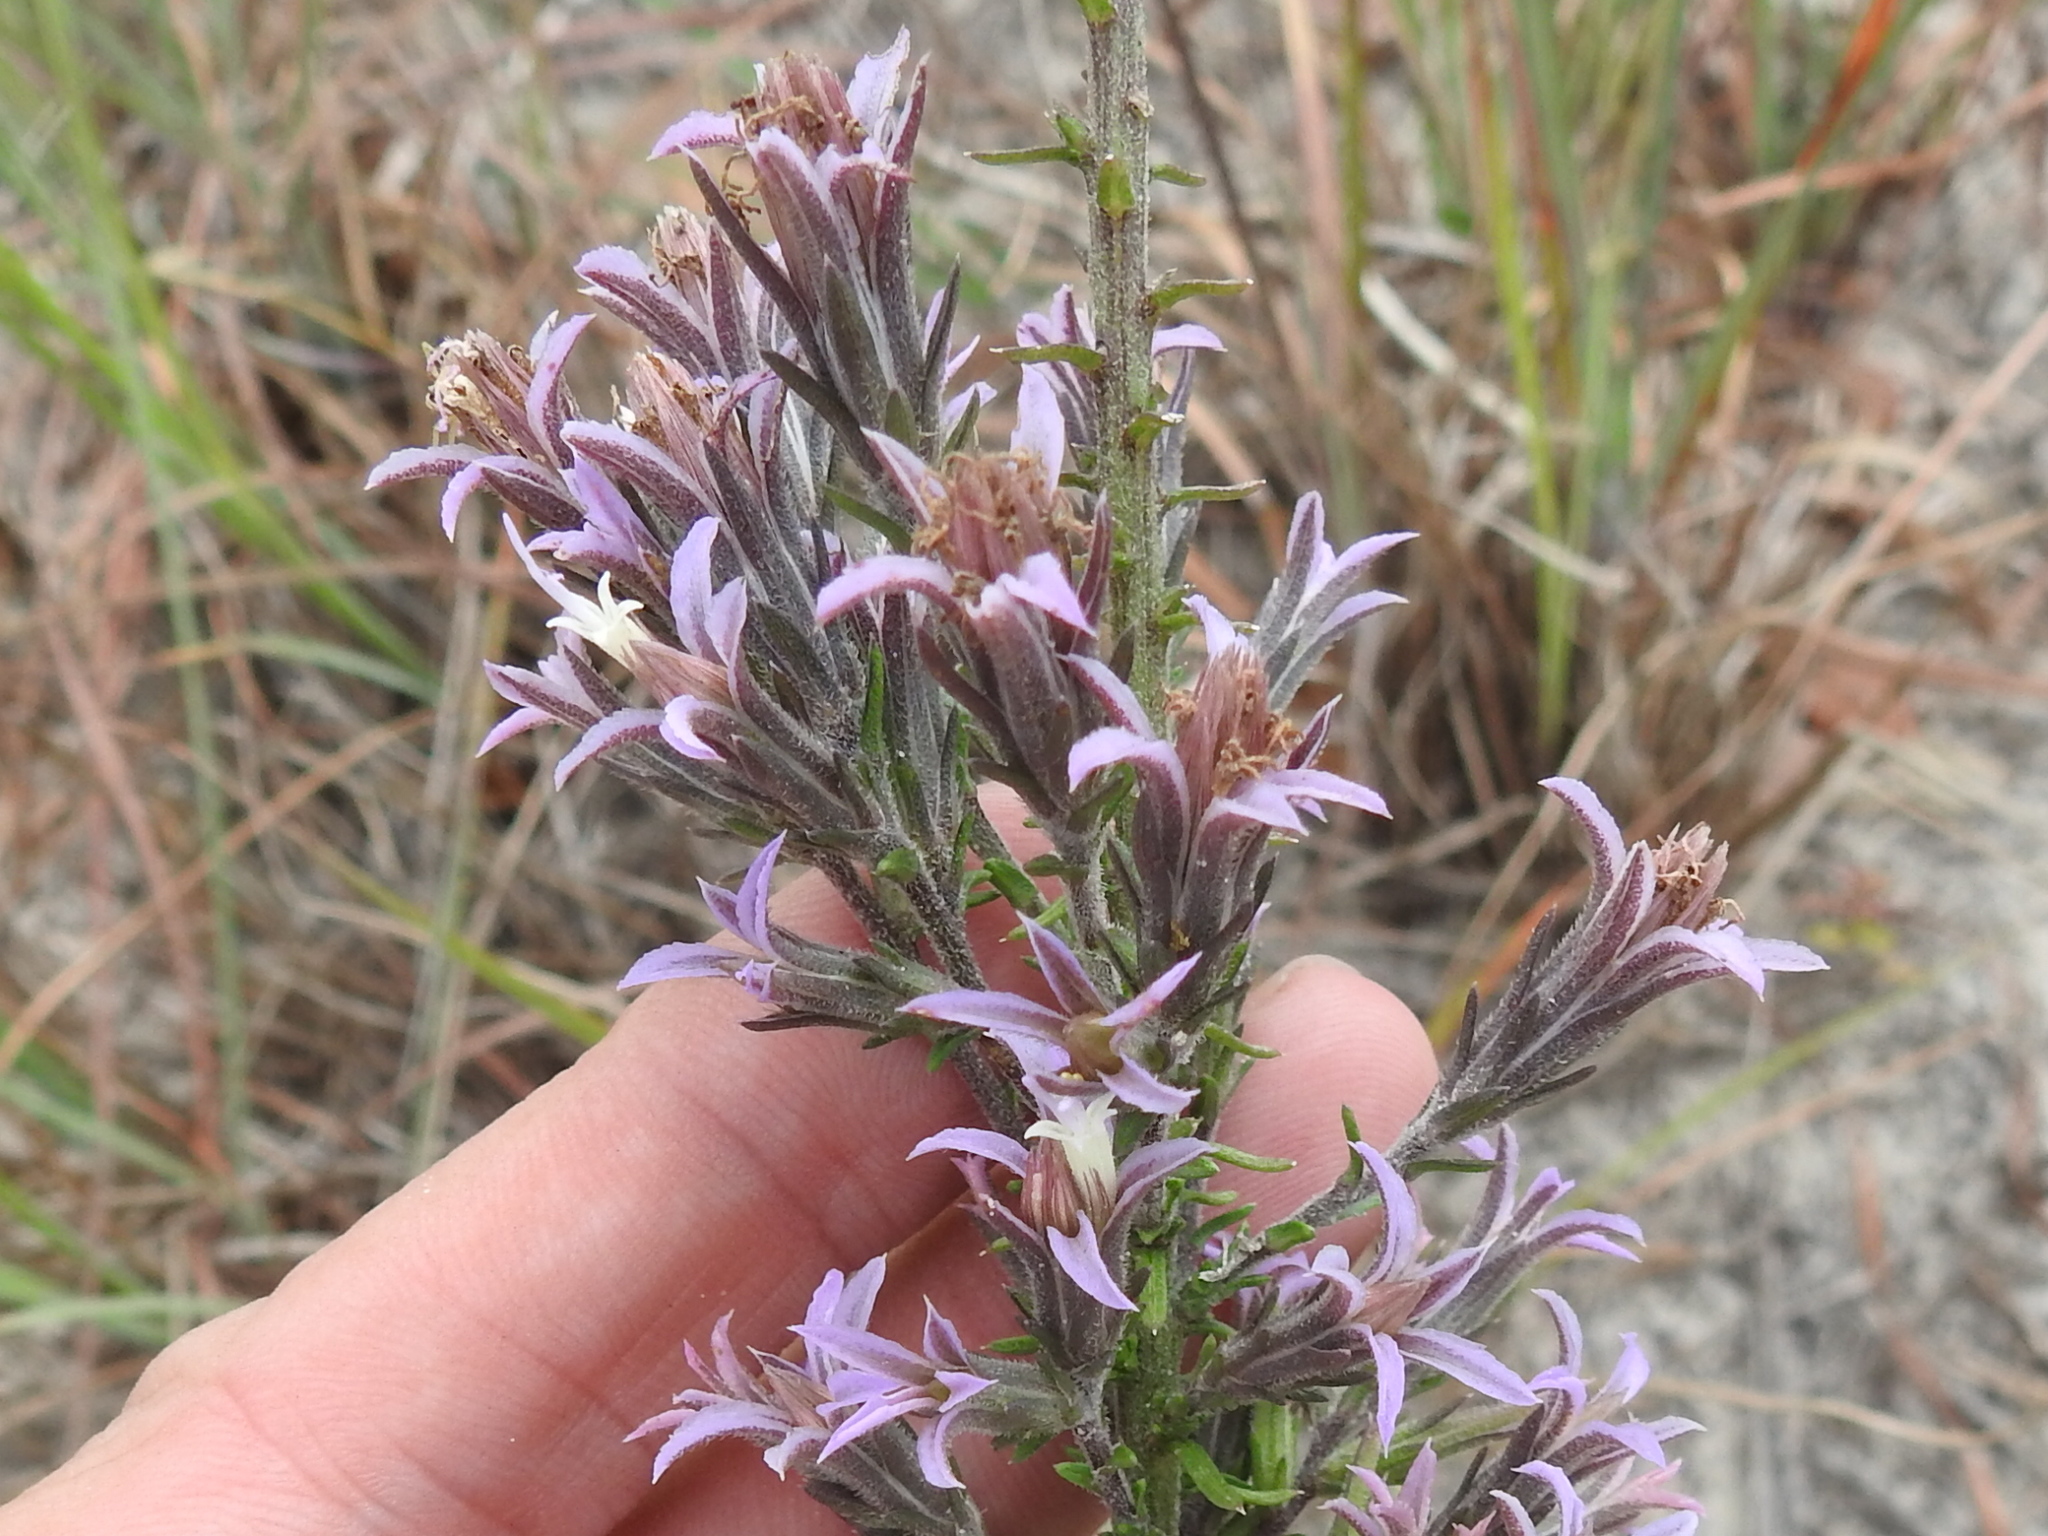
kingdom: Plantae
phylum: Tracheophyta
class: Magnoliopsida
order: Asterales
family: Asteraceae
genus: Liatris
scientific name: Liatris carizzana
